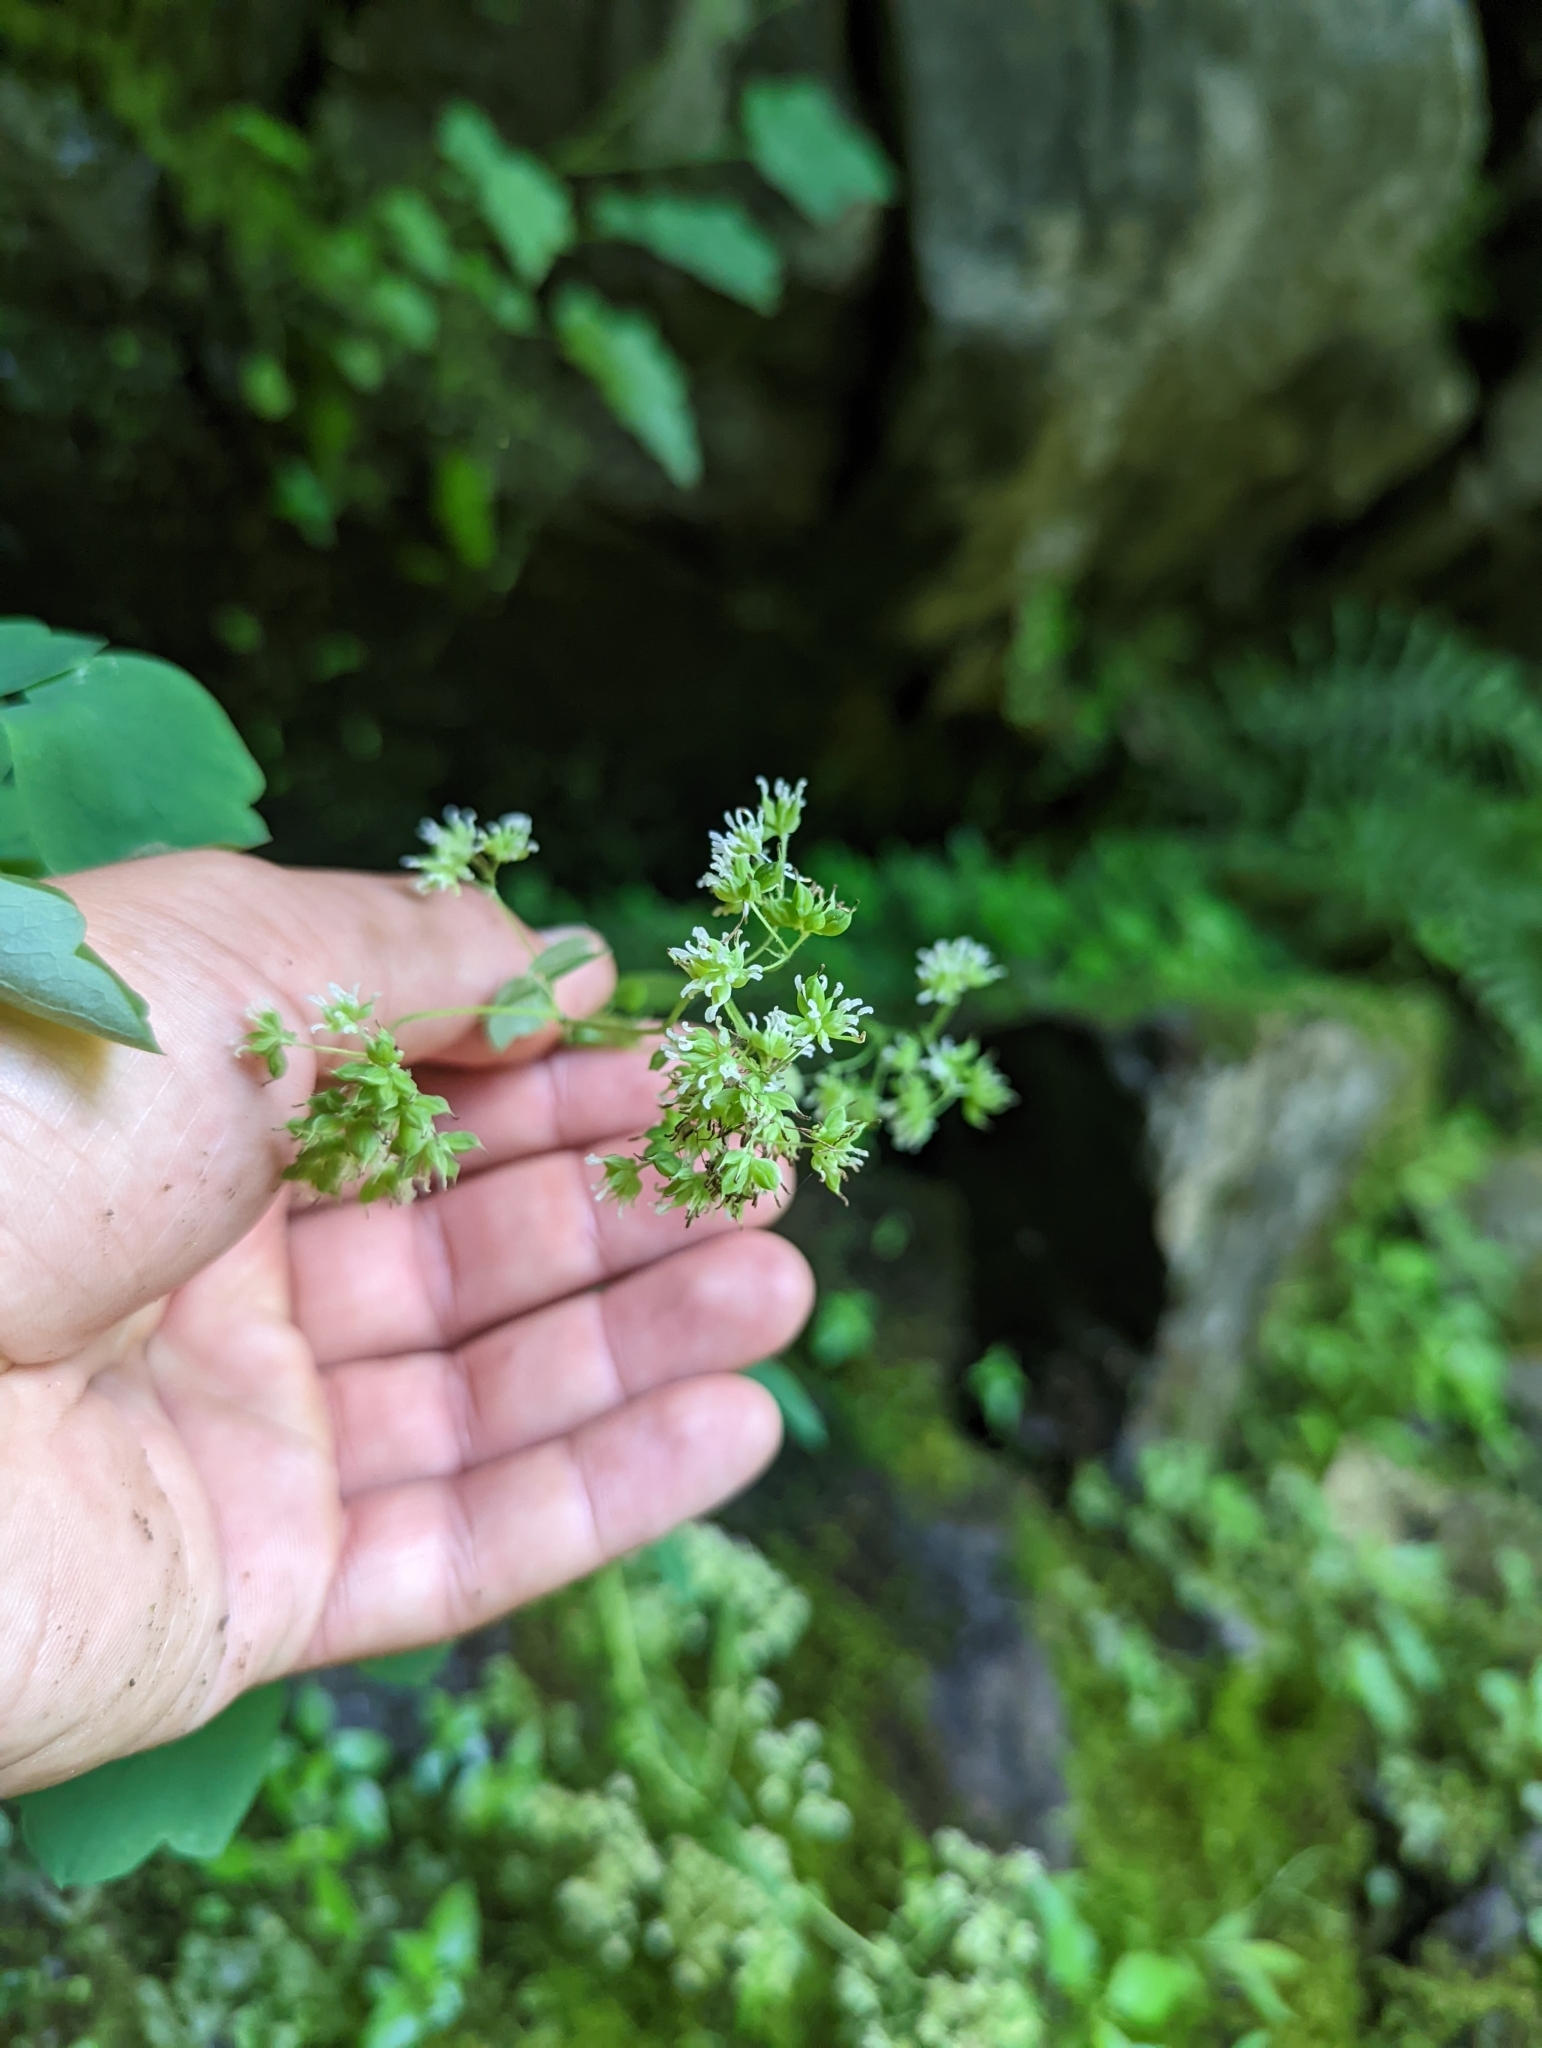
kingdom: Plantae
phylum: Tracheophyta
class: Magnoliopsida
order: Ranunculales
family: Ranunculaceae
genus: Thalictrum
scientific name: Thalictrum pubescens
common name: King-of-the-meadow
